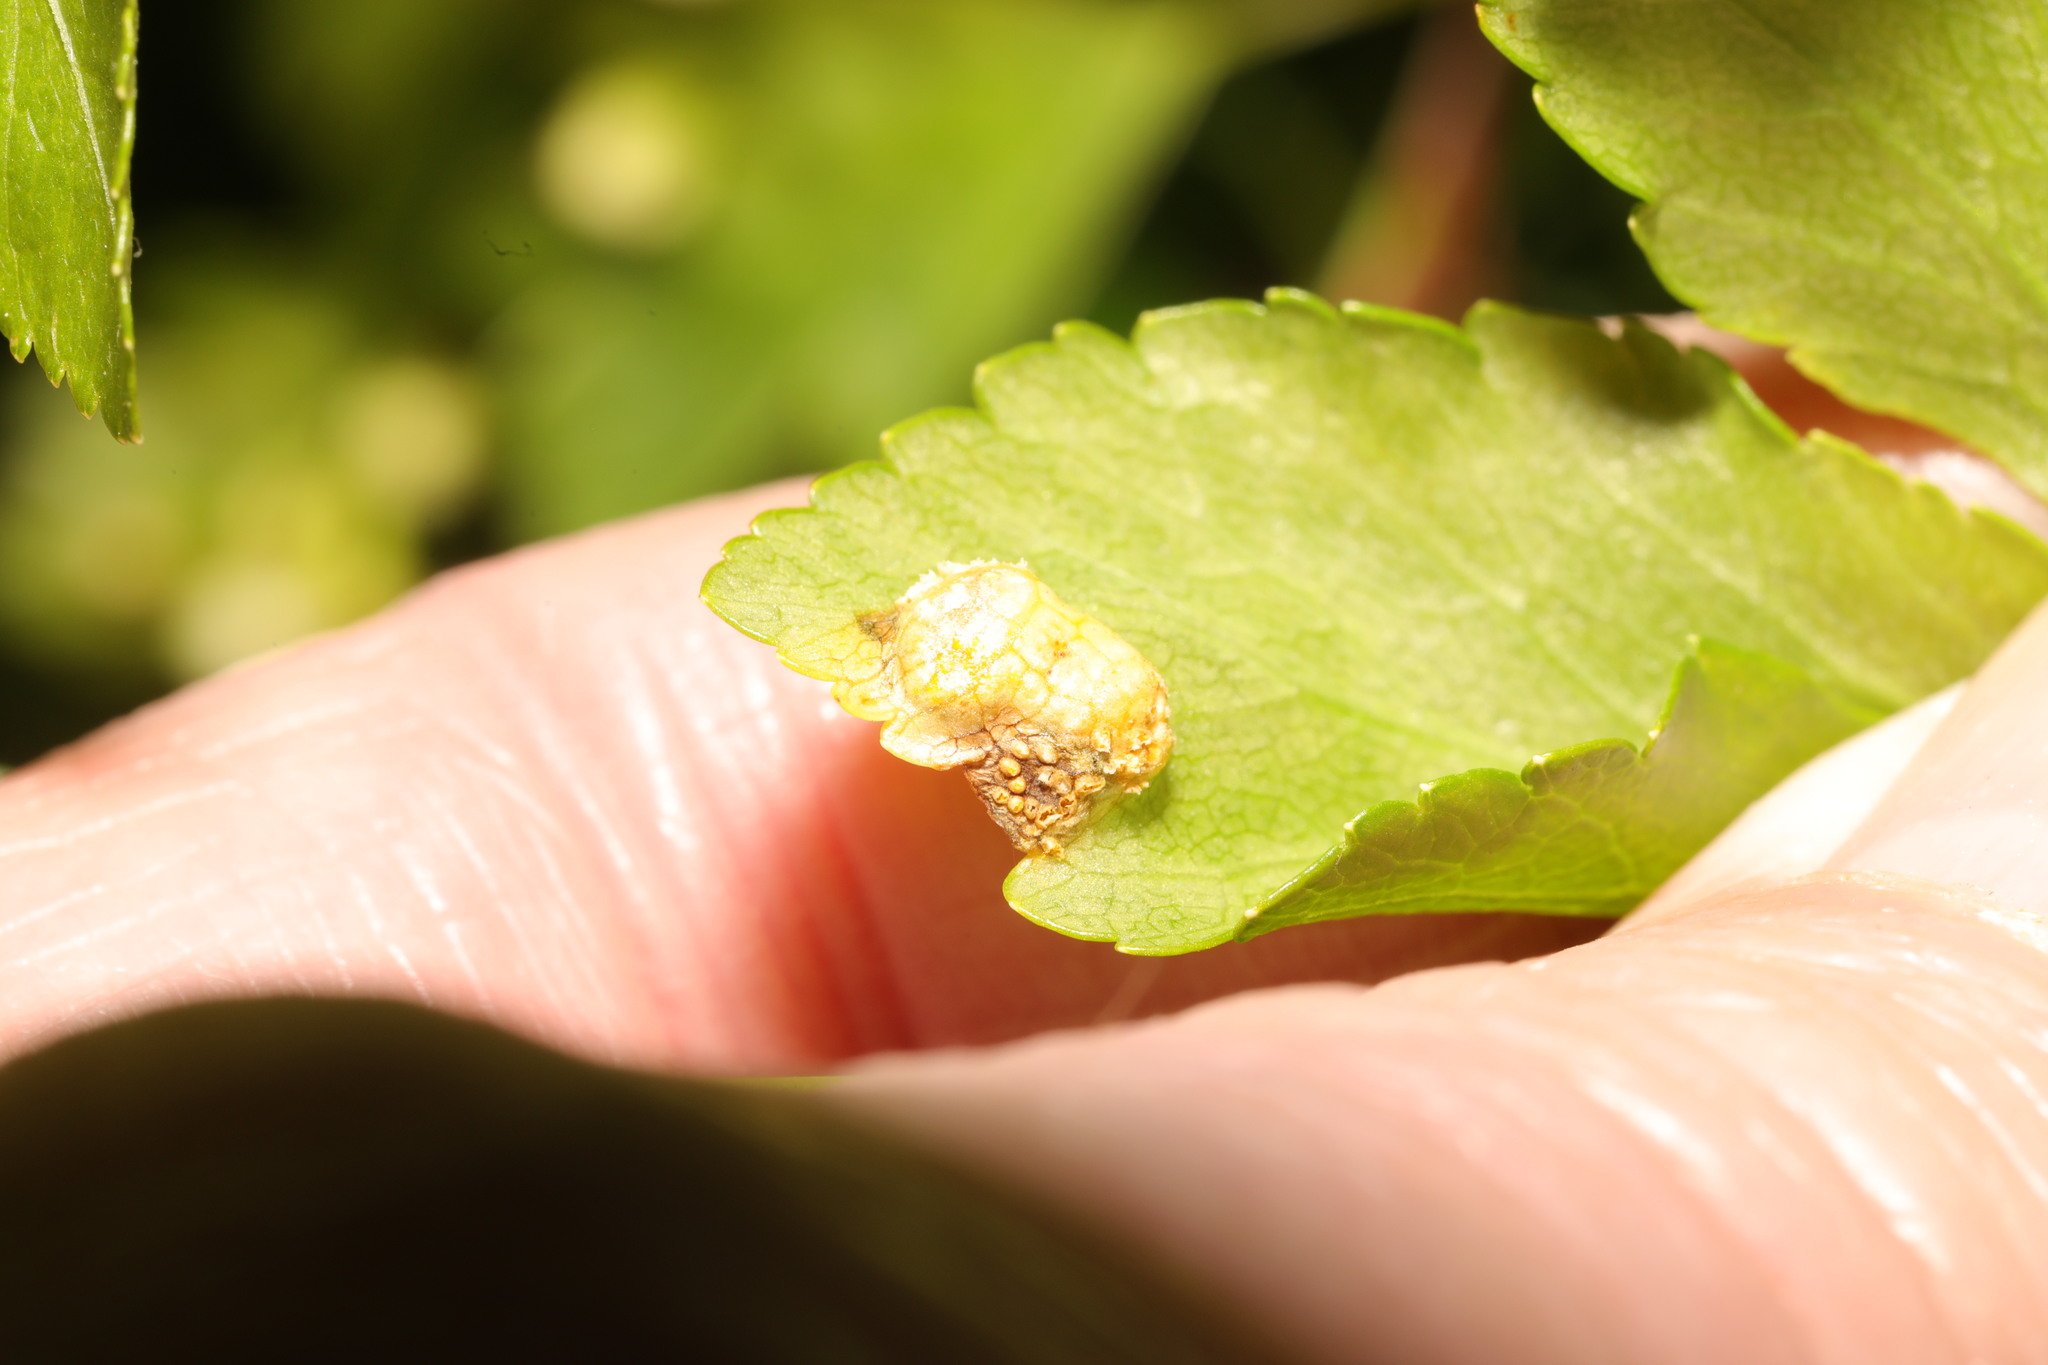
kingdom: Fungi
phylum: Basidiomycota
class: Pucciniomycetes
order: Pucciniales
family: Pucciniaceae
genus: Puccinia
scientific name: Puccinia smyrnii
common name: Alexanders rust
